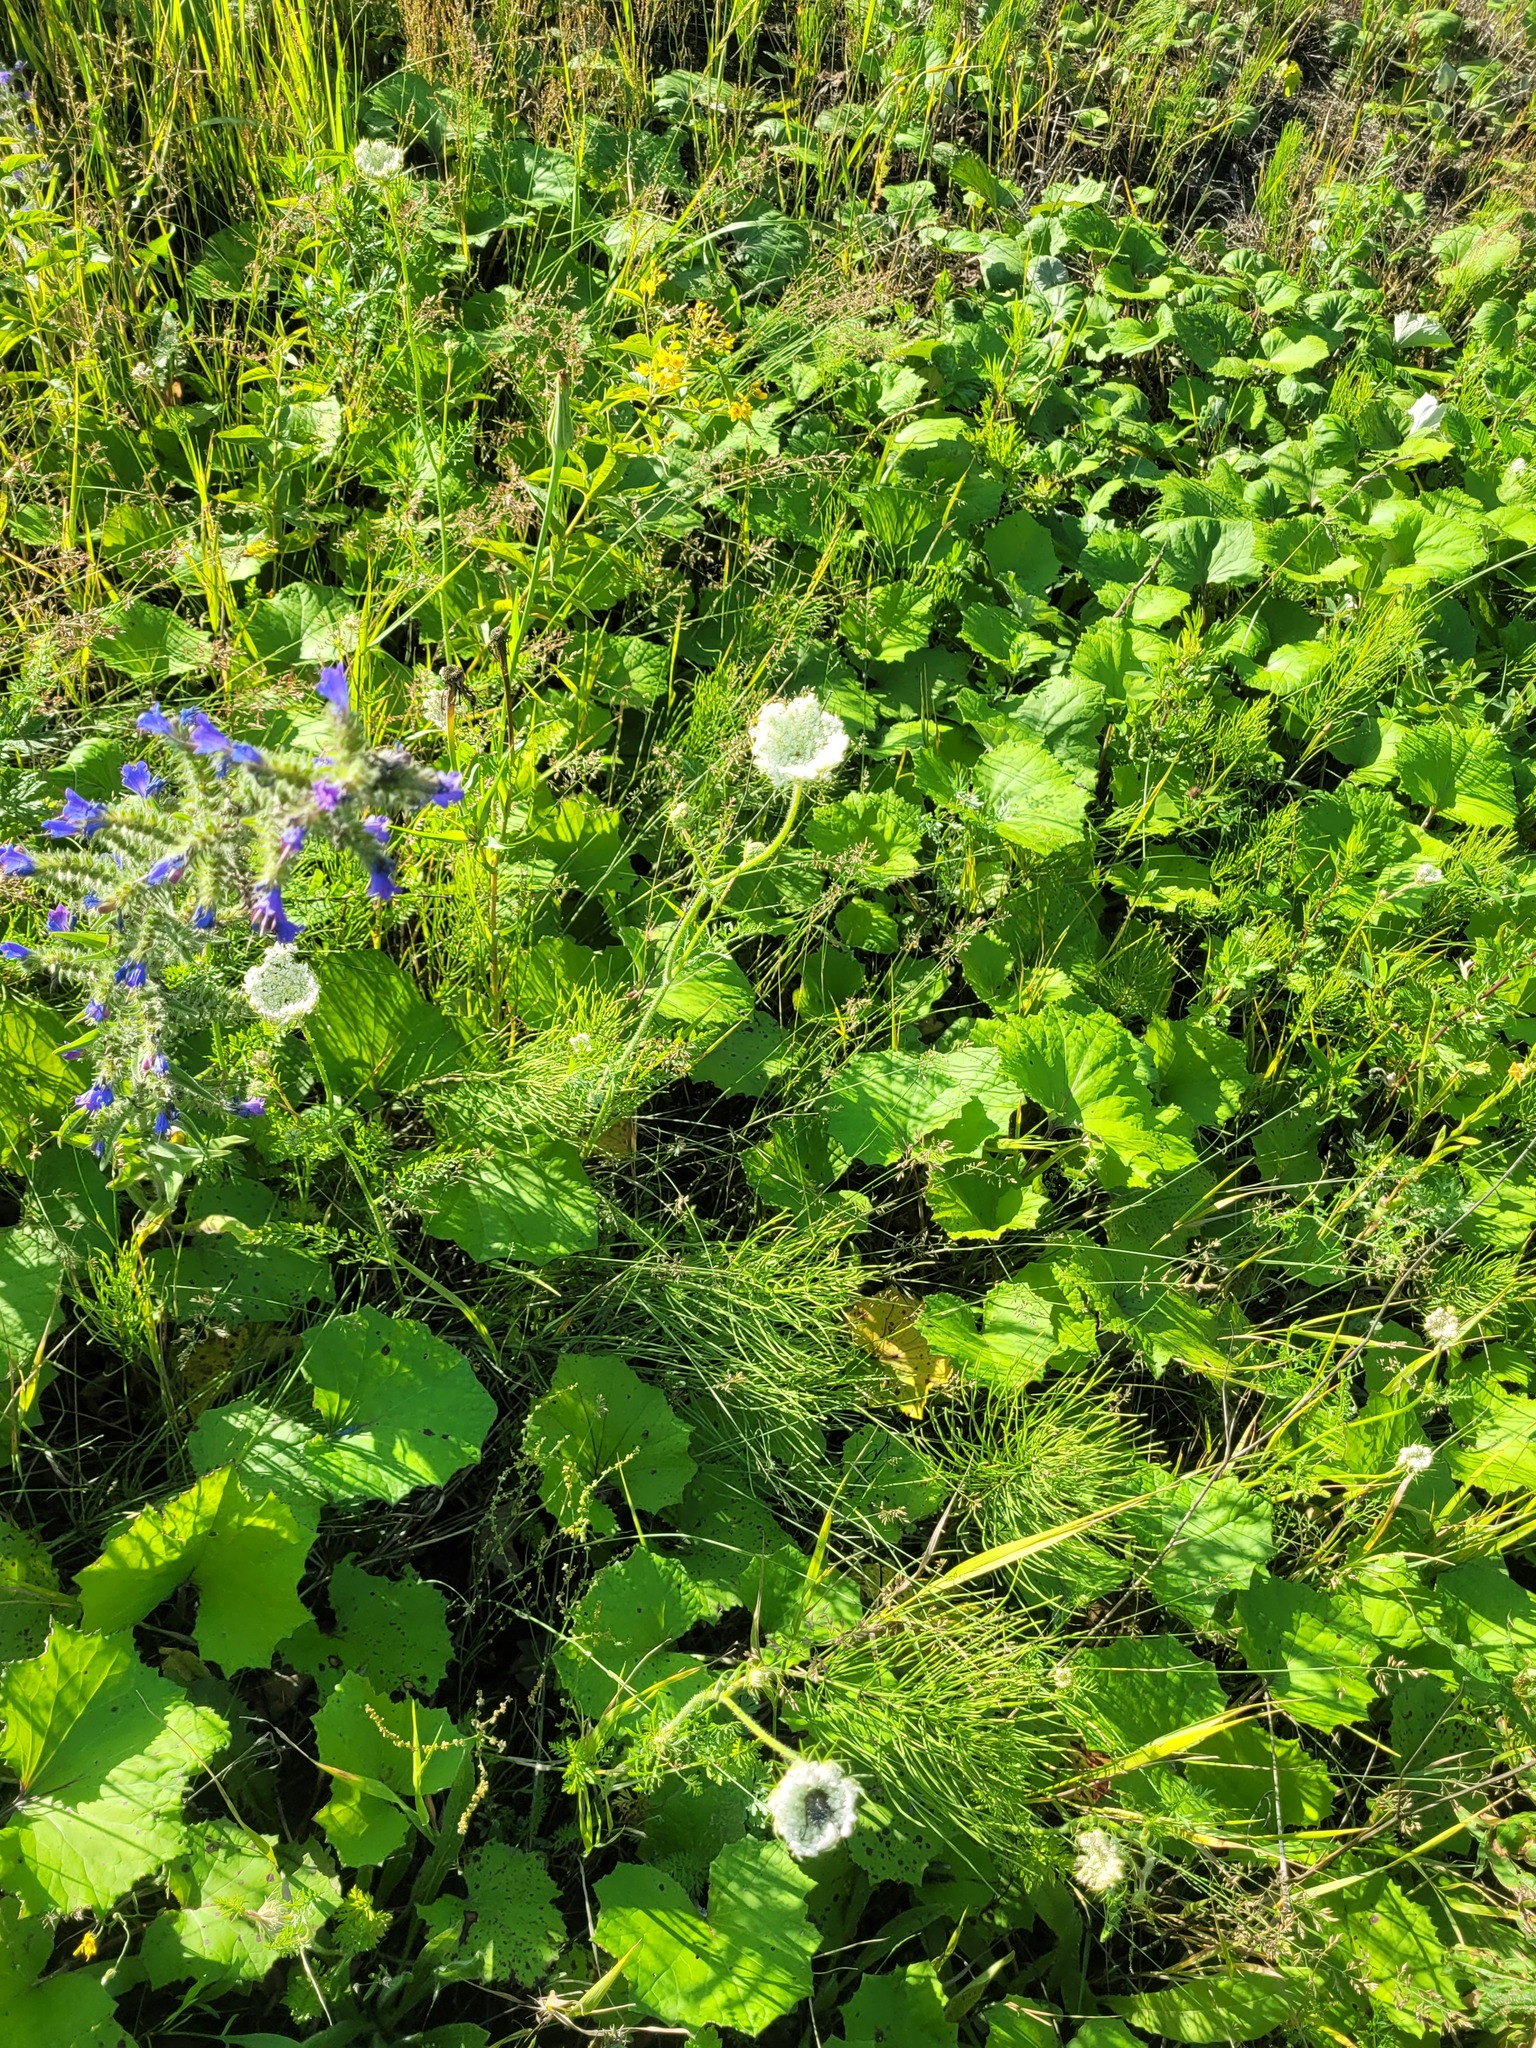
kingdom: Plantae
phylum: Tracheophyta
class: Magnoliopsida
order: Apiales
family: Apiaceae
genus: Daucus
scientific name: Daucus carota
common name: Wild carrot
